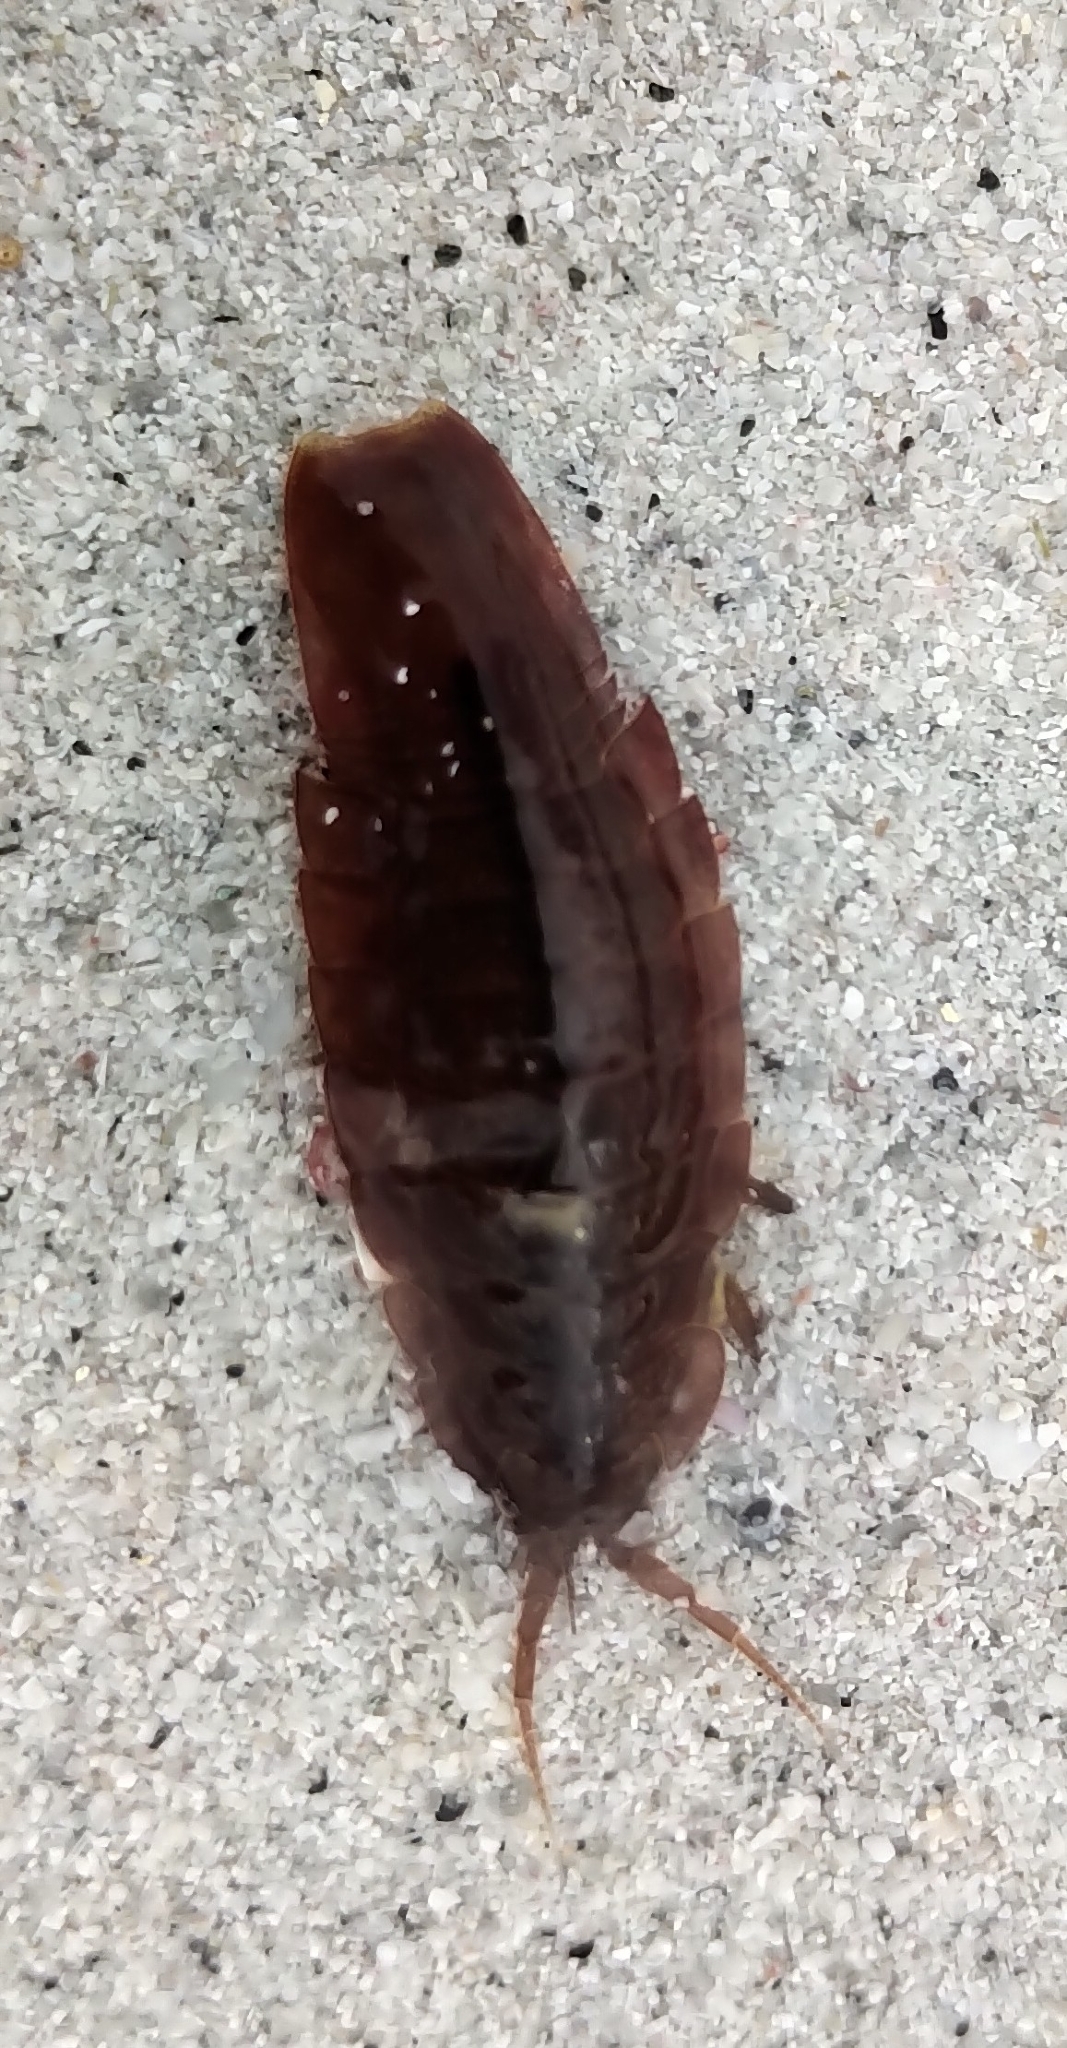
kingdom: Animalia
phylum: Arthropoda
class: Malacostraca
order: Isopoda
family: Idoteidae
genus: Idotea
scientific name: Idotea emarginata
